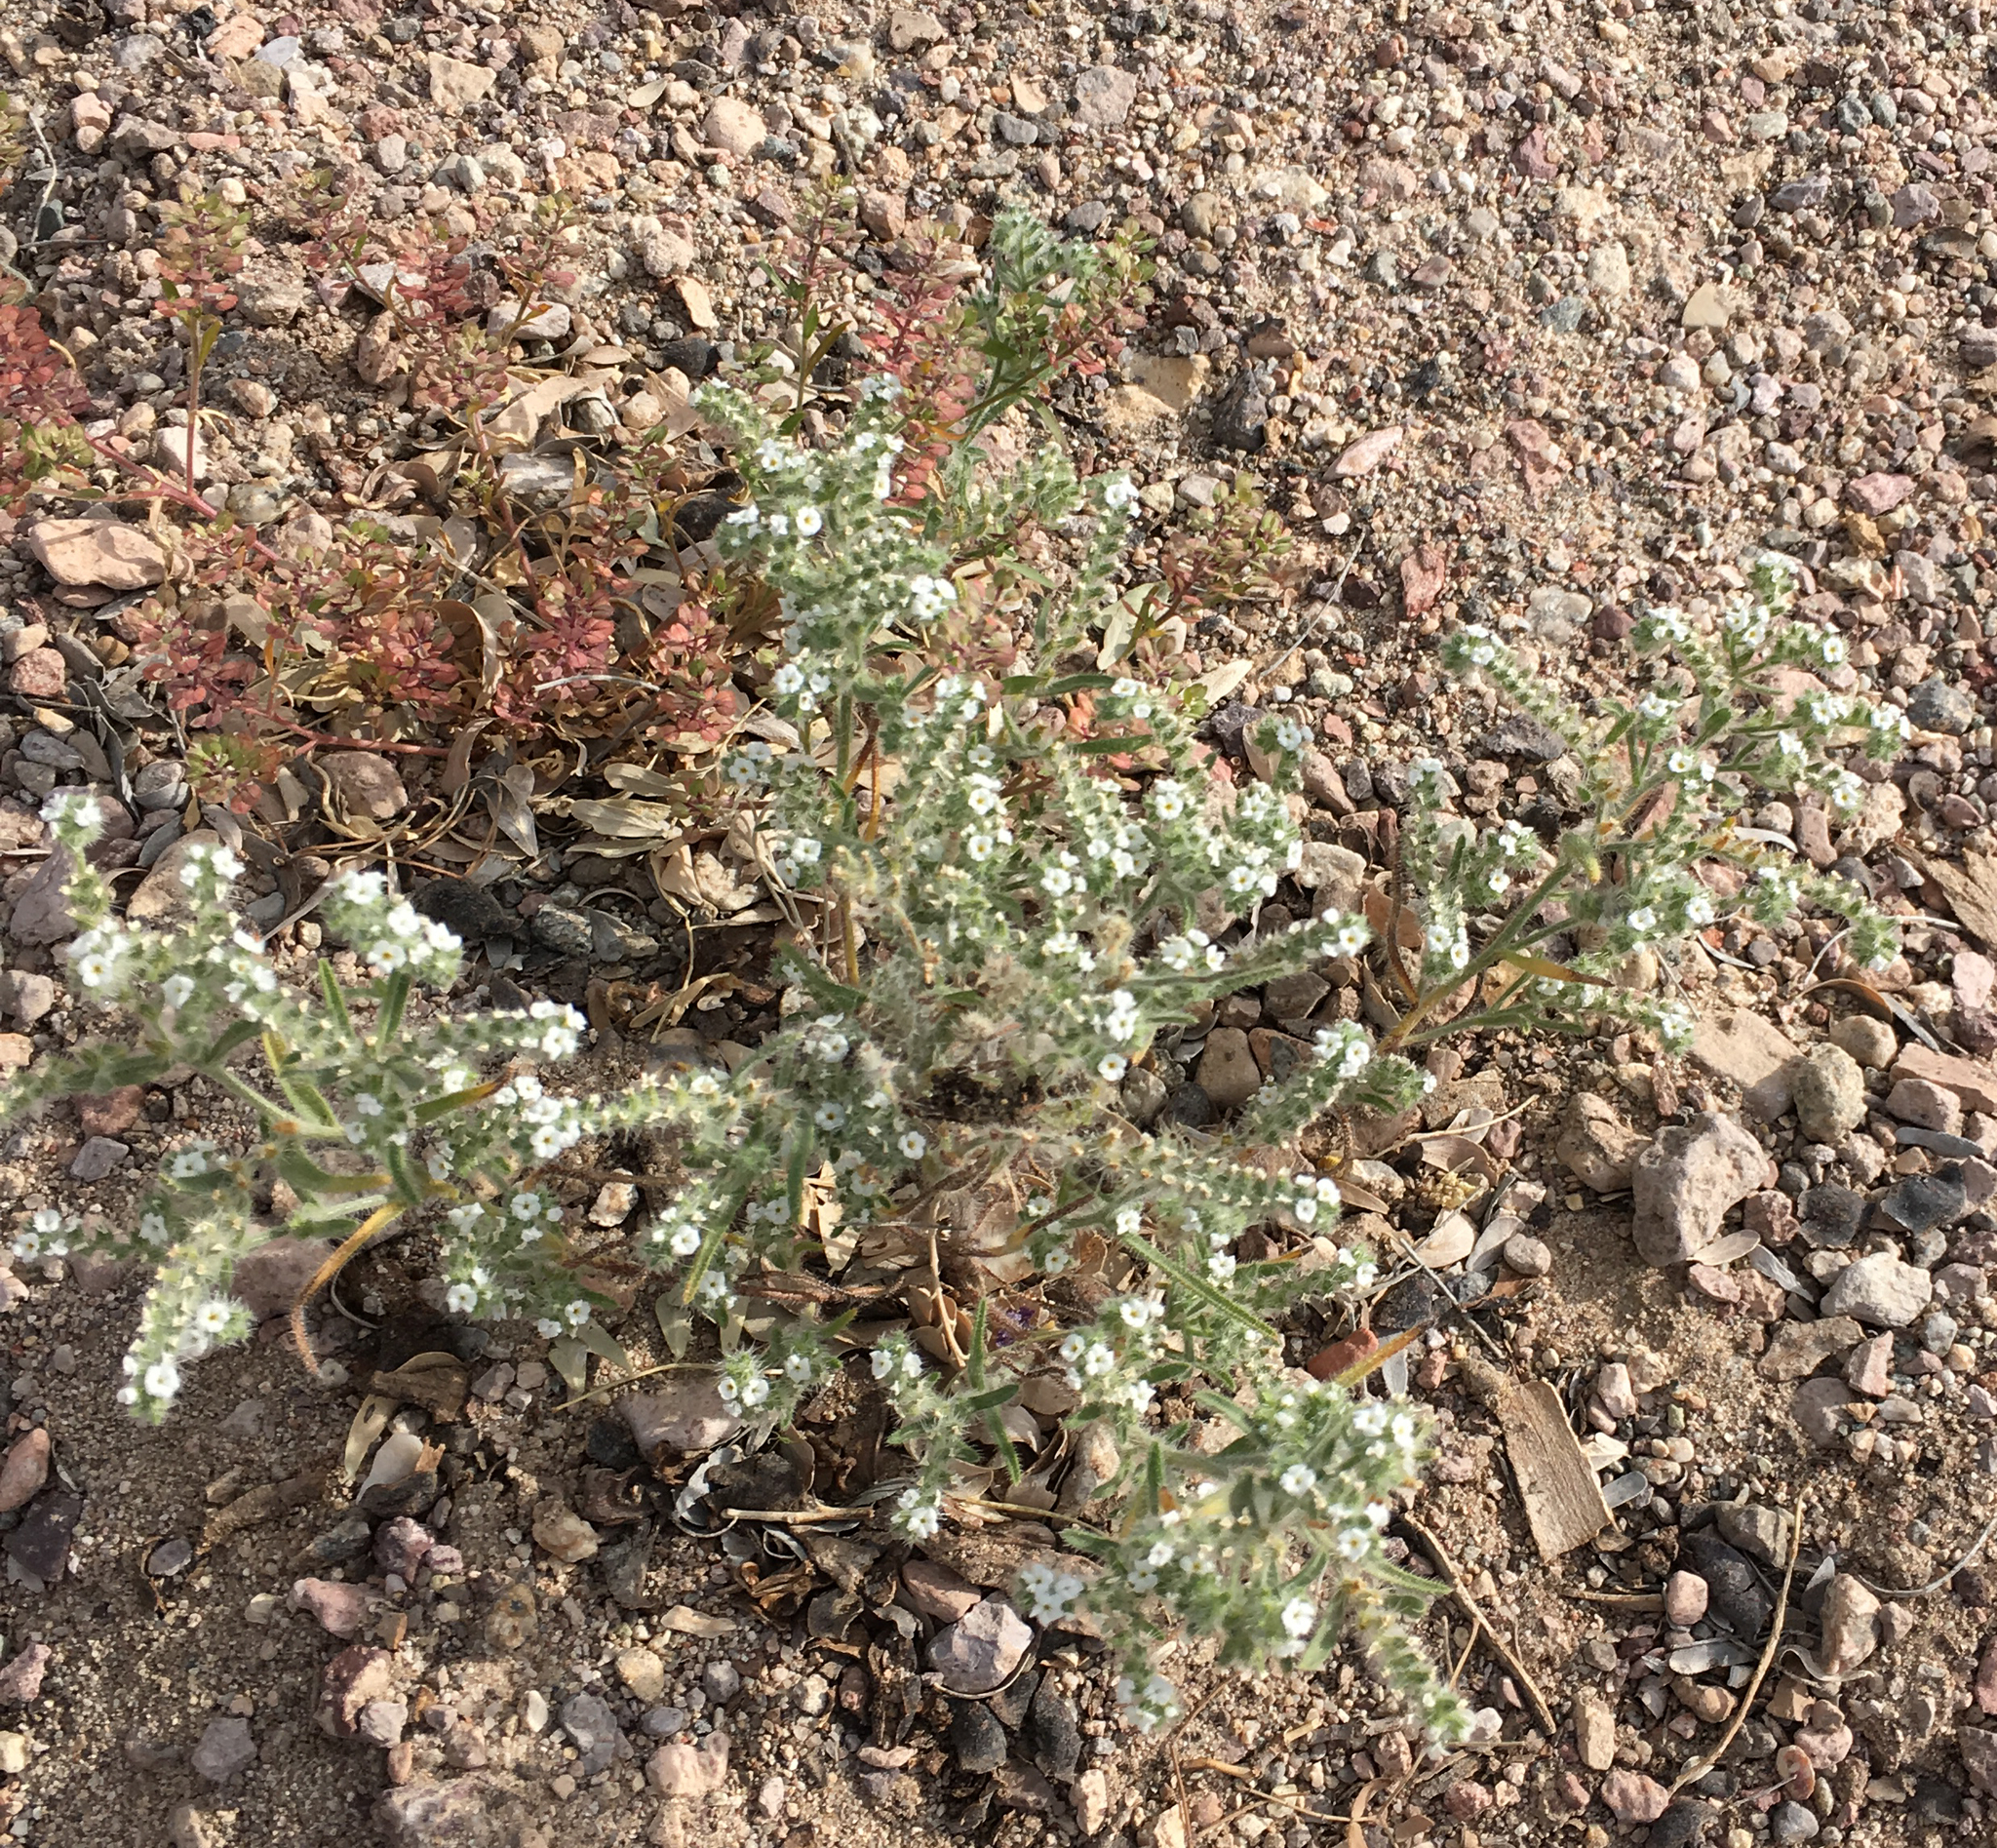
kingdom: Plantae
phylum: Tracheophyta
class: Magnoliopsida
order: Boraginales
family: Boraginaceae
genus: Johnstonella
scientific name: Johnstonella angustifolia
